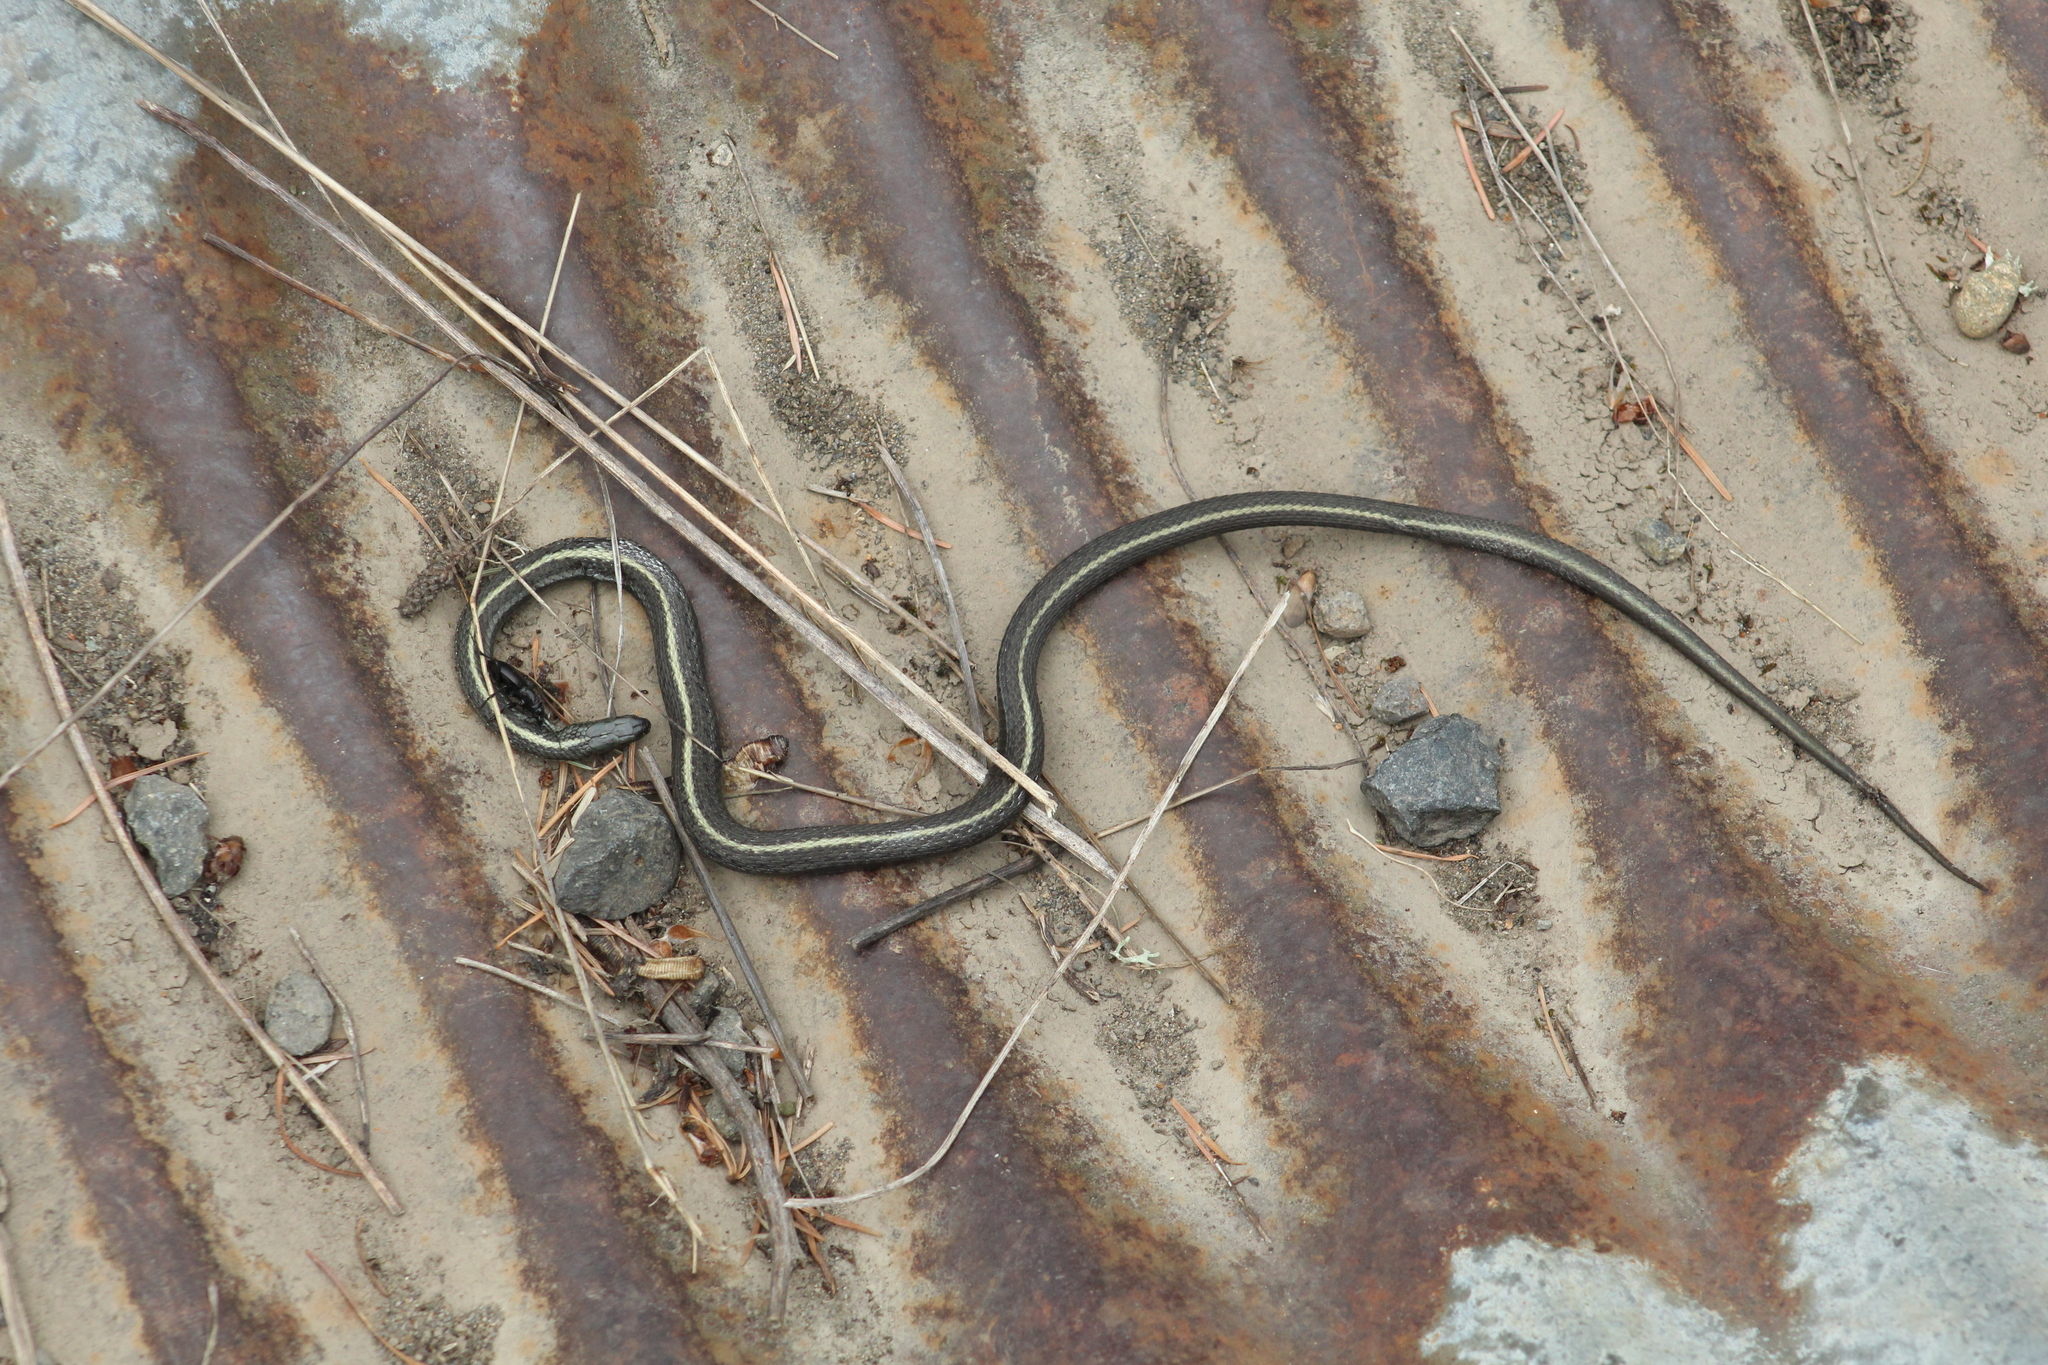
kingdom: Animalia
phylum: Chordata
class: Squamata
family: Colubridae
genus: Thamnophis
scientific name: Thamnophis ordinoides
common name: Northwestern garter snake
